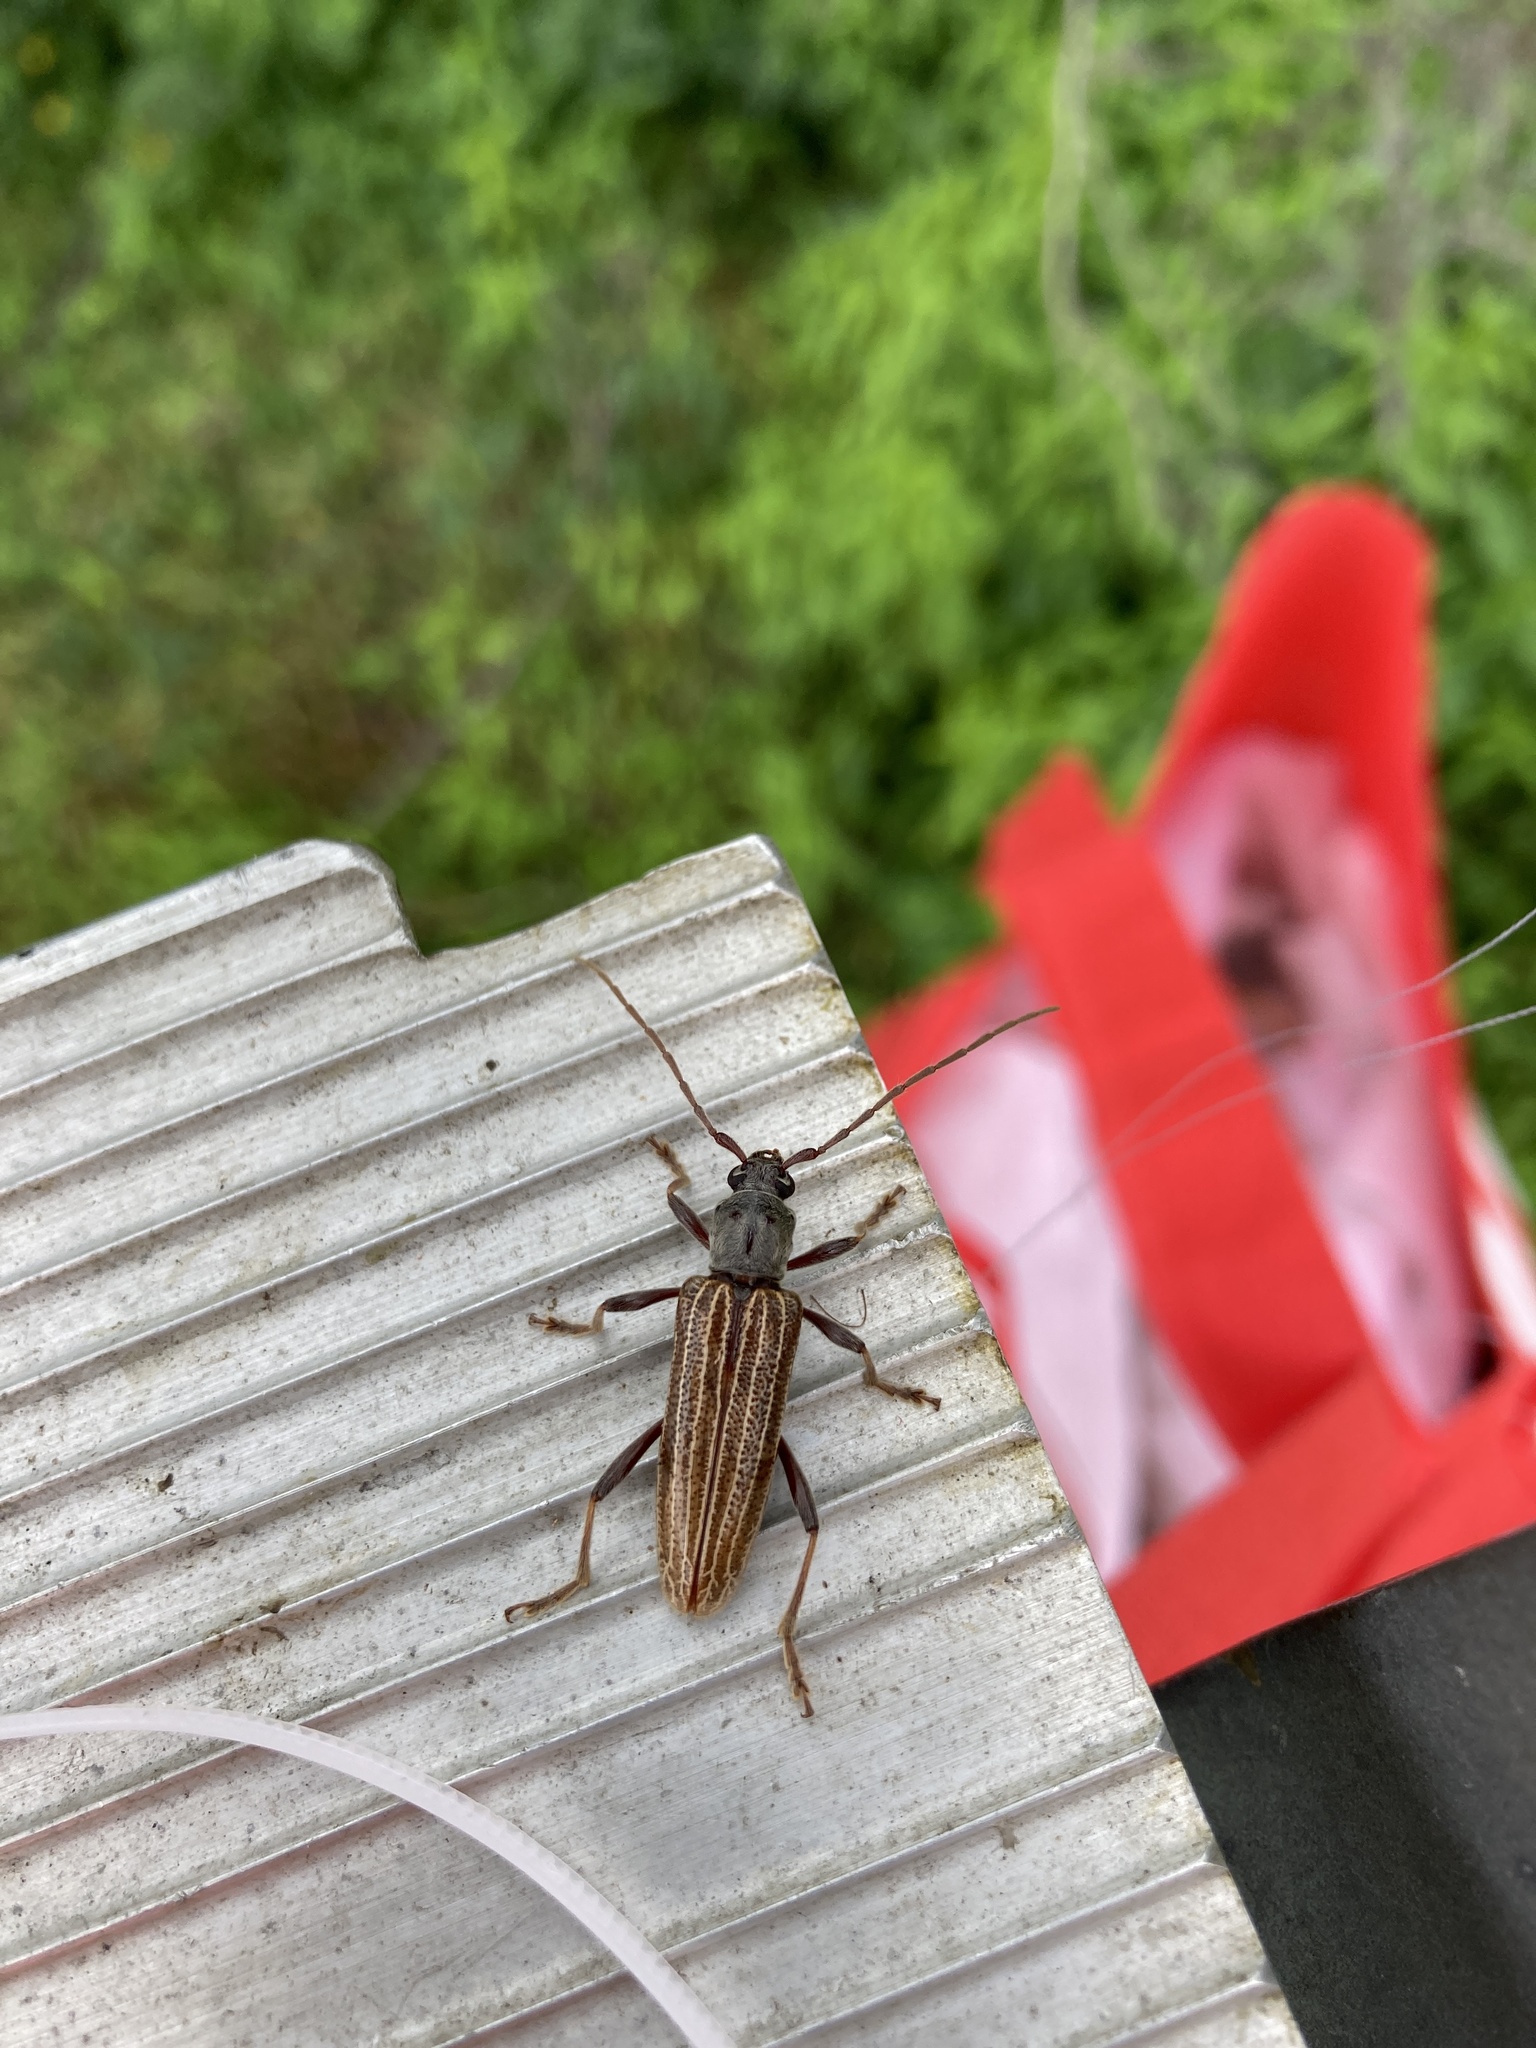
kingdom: Animalia
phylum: Arthropoda
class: Insecta
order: Coleoptera
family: Cerambycidae
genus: Xuthodes
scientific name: Xuthodes batesi
